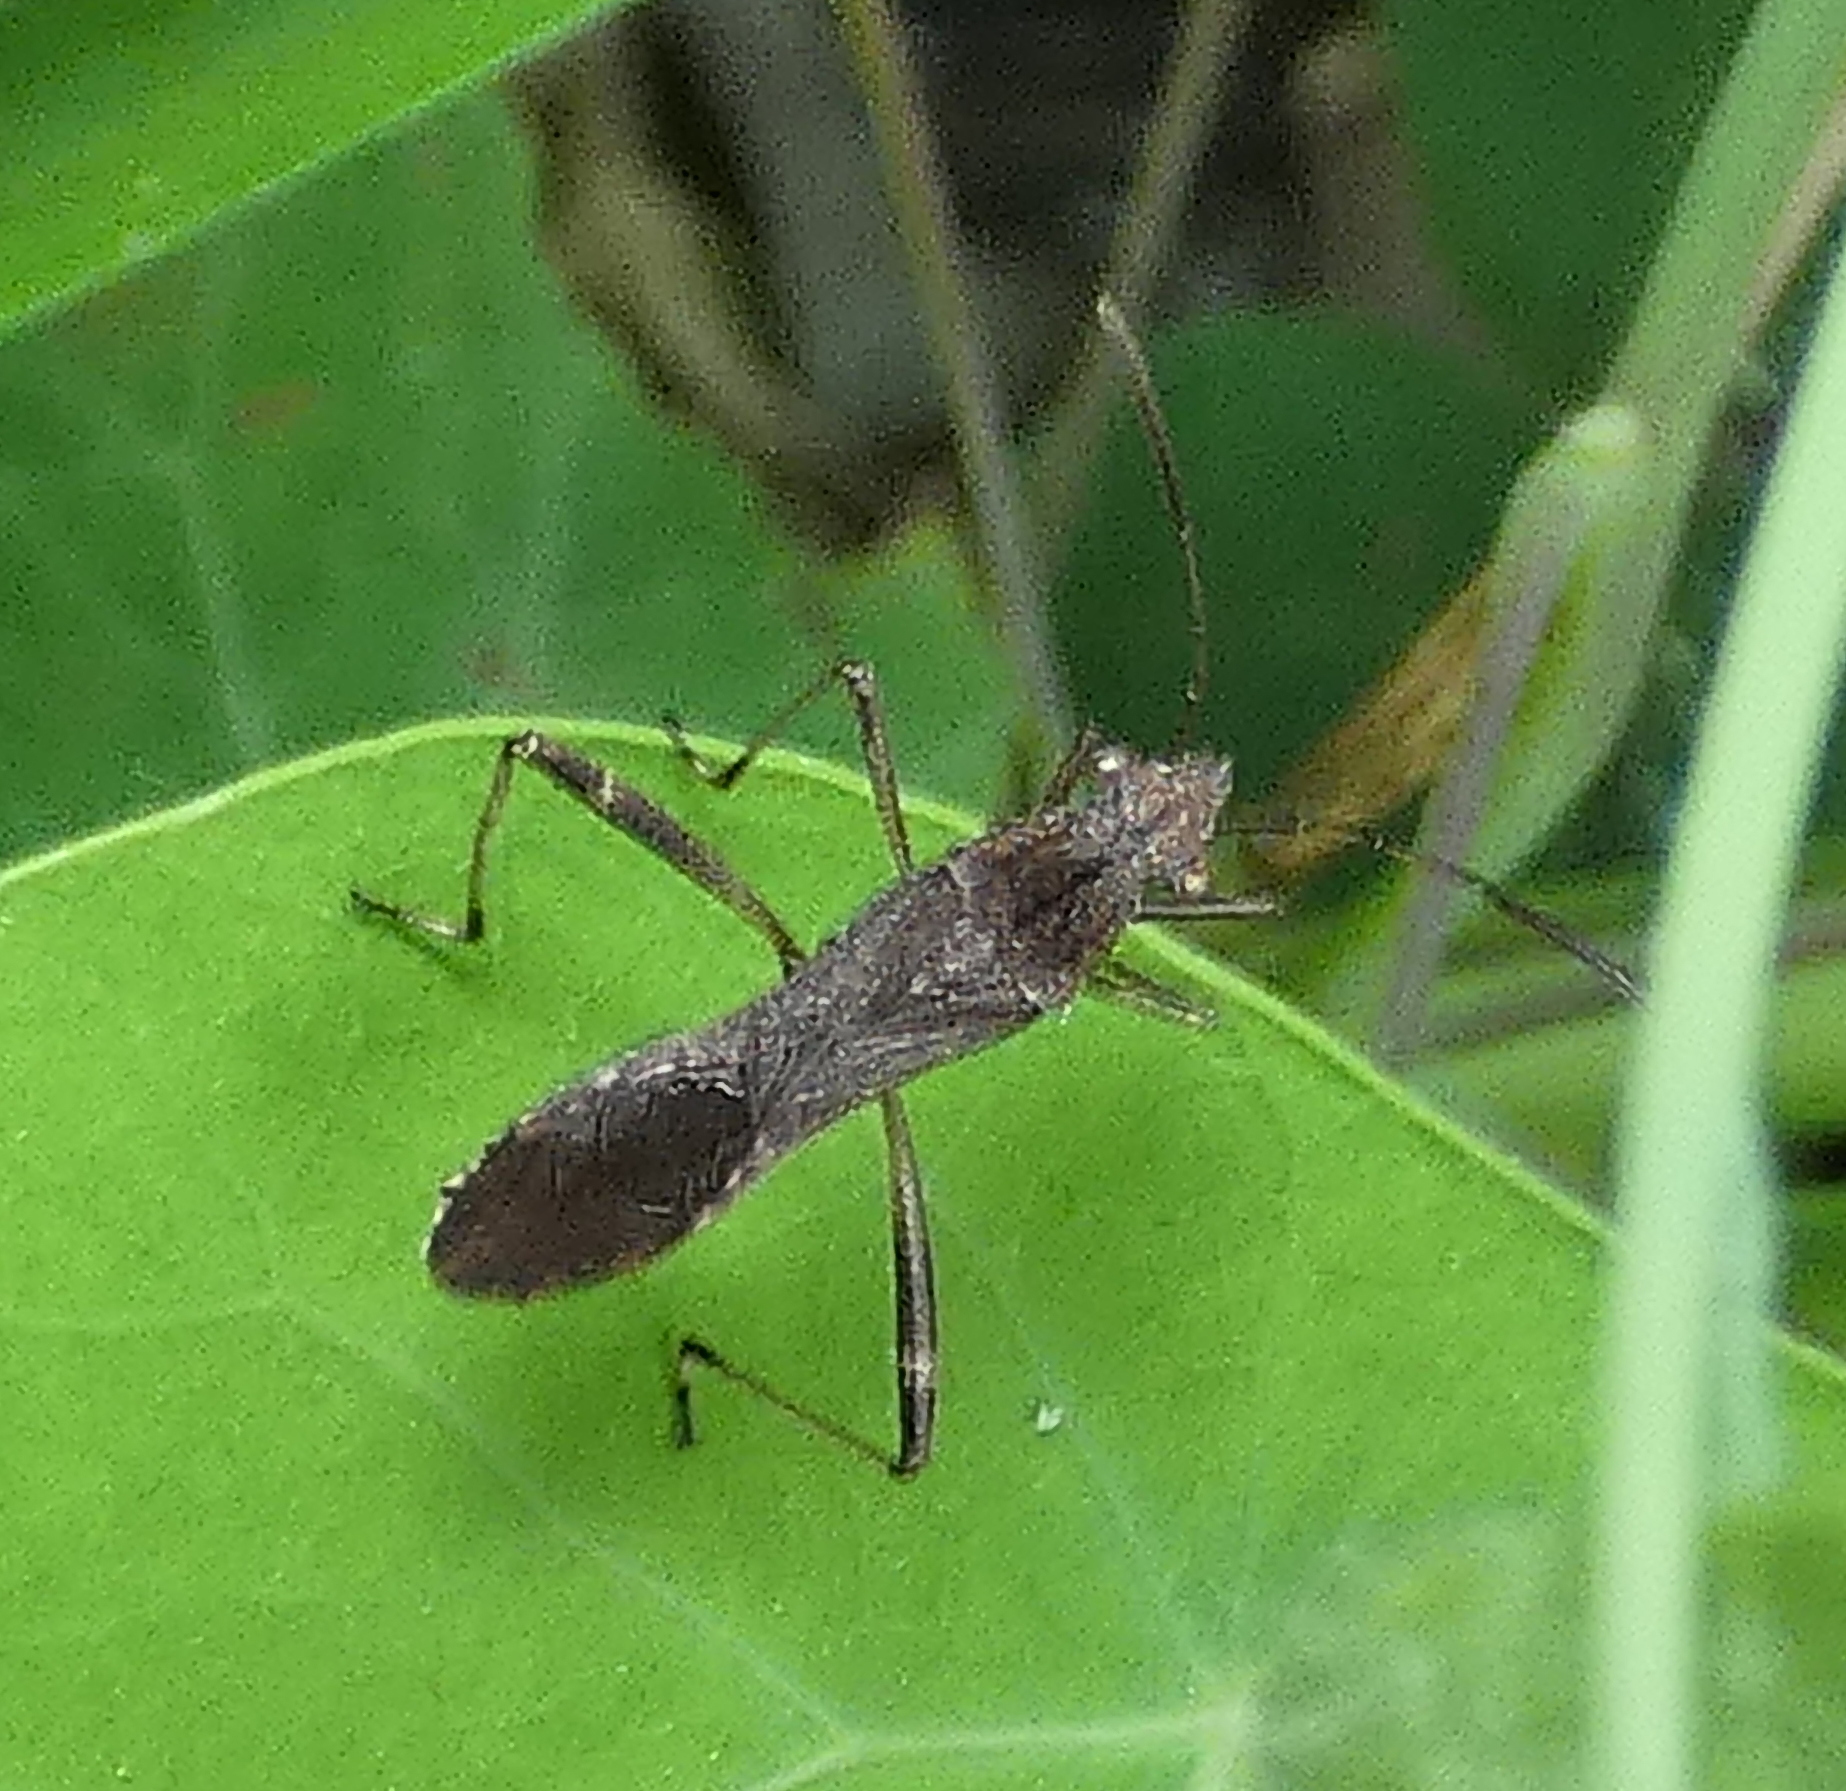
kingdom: Animalia
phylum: Arthropoda
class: Insecta
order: Hemiptera
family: Alydidae
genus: Neomegalotomus
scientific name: Neomegalotomus parvus
